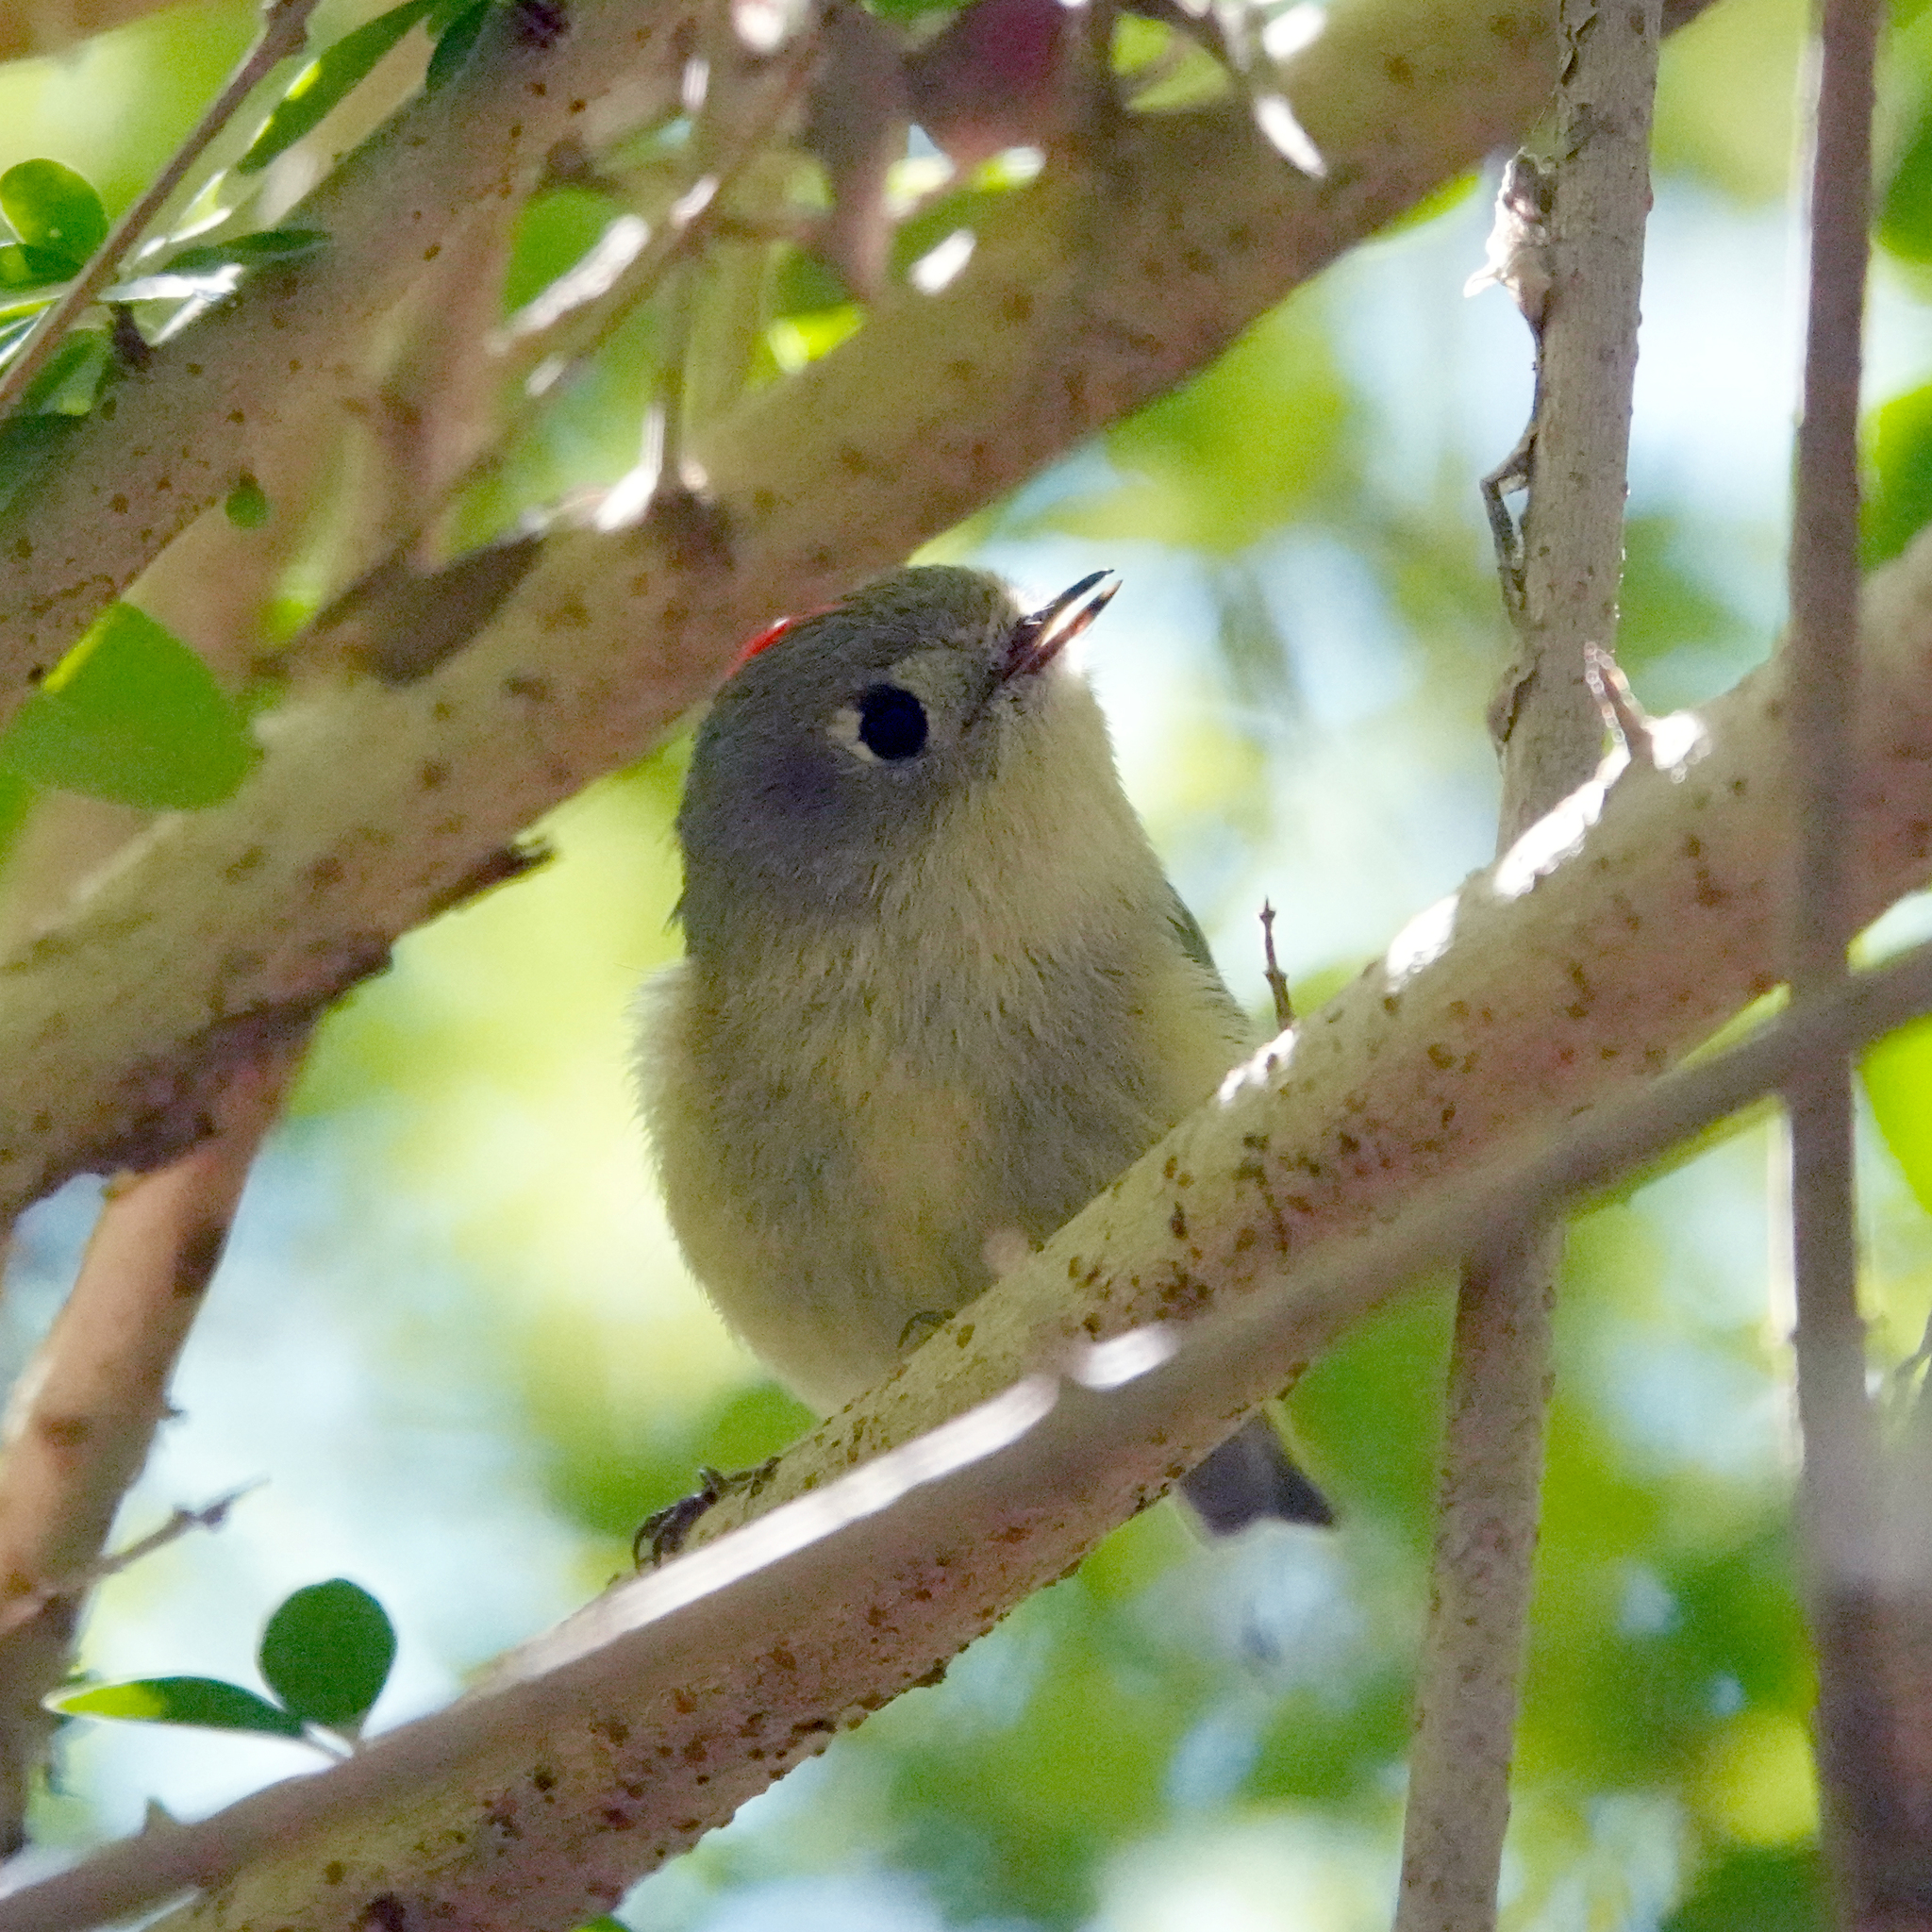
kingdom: Animalia
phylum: Chordata
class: Aves
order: Passeriformes
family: Regulidae
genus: Regulus
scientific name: Regulus calendula
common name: Ruby-crowned kinglet
